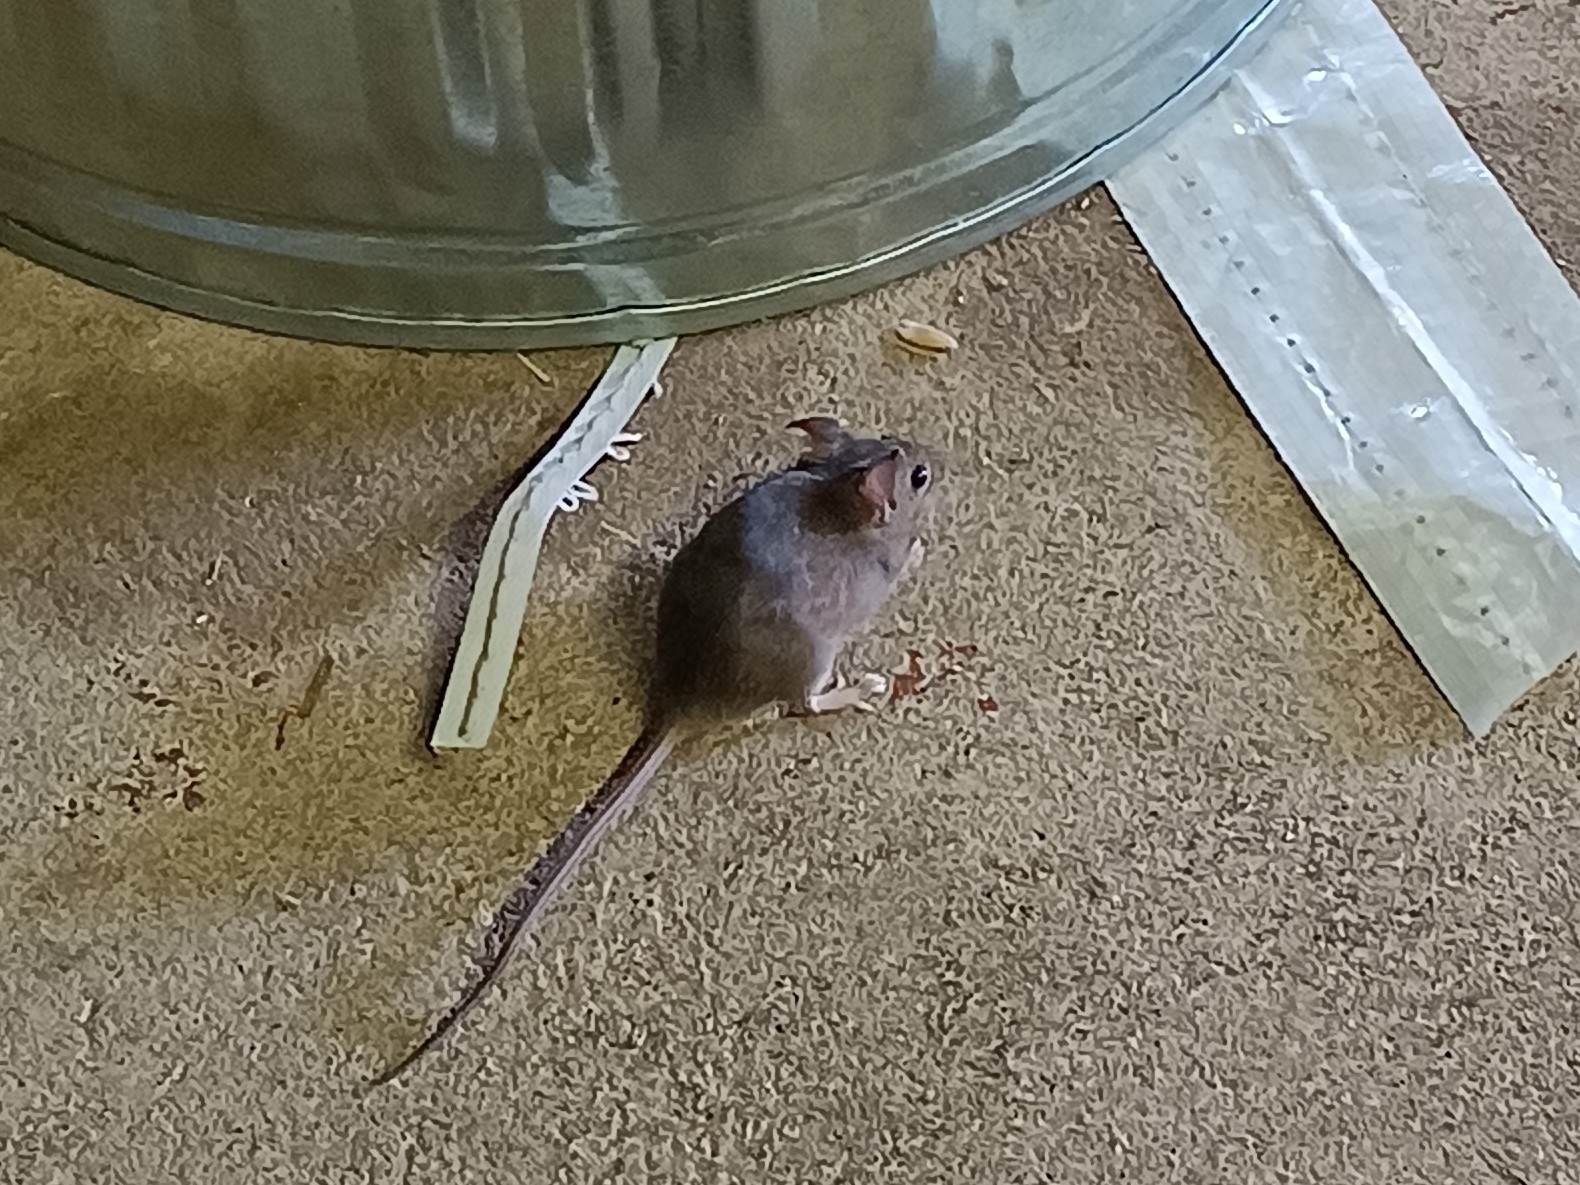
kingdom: Animalia
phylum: Chordata
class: Mammalia
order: Rodentia
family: Muridae
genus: Mus
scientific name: Mus musculus
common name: House mouse
